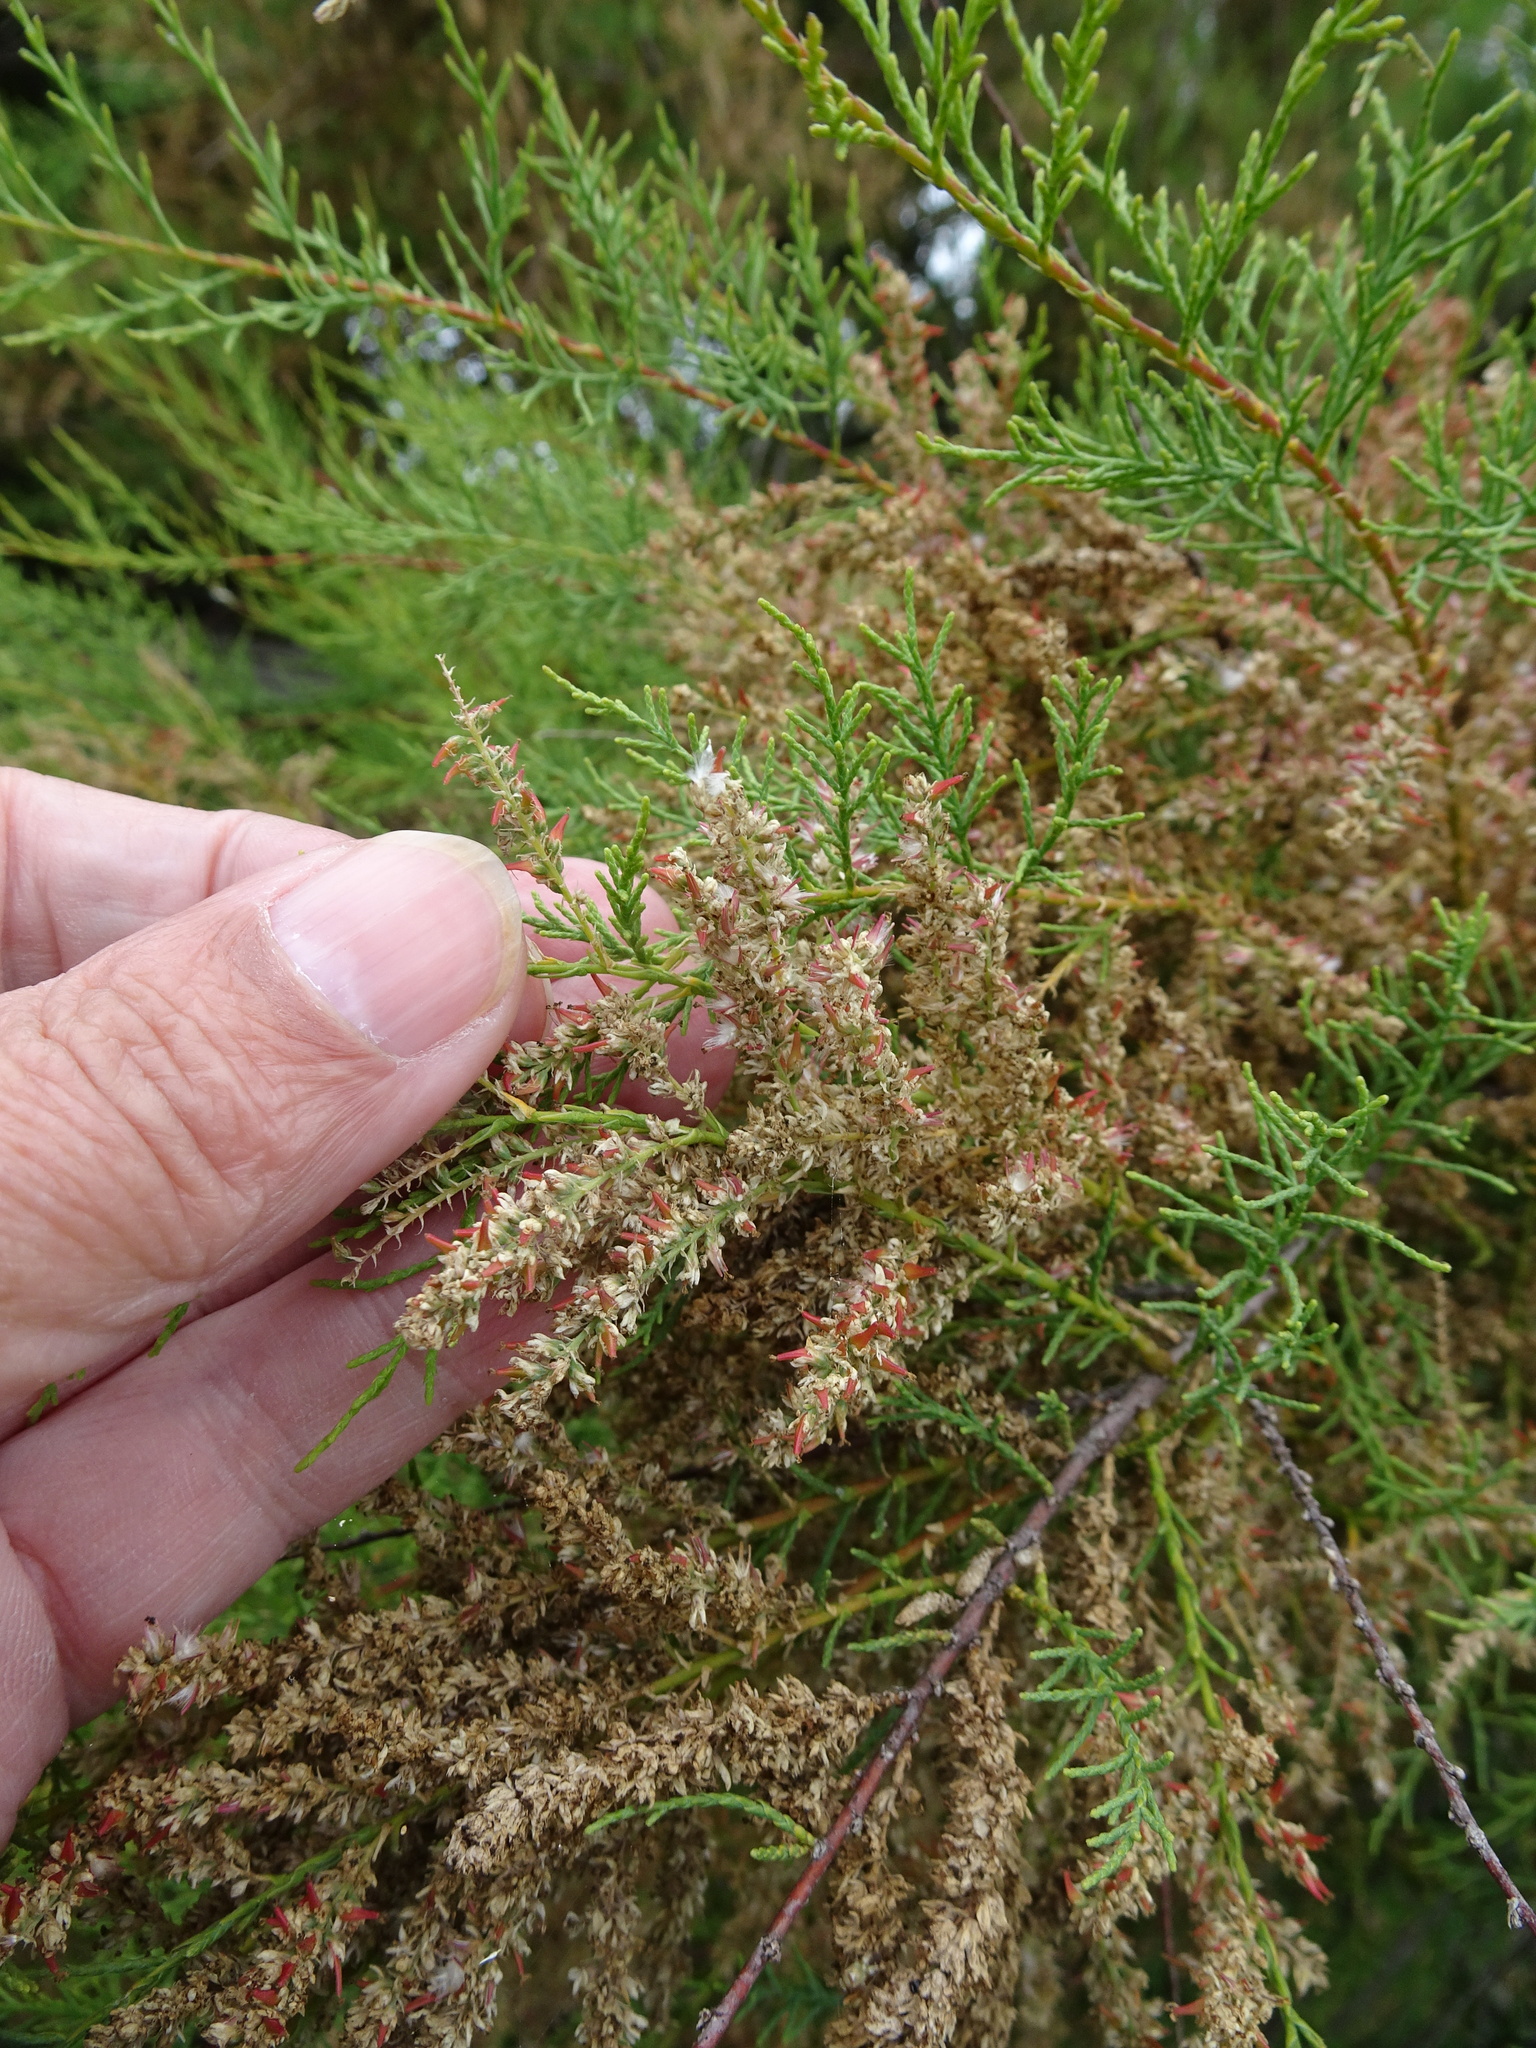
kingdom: Plantae
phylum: Tracheophyta
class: Magnoliopsida
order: Caryophyllales
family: Tamaricaceae
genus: Tamarix
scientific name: Tamarix gallica
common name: Tamarisk
